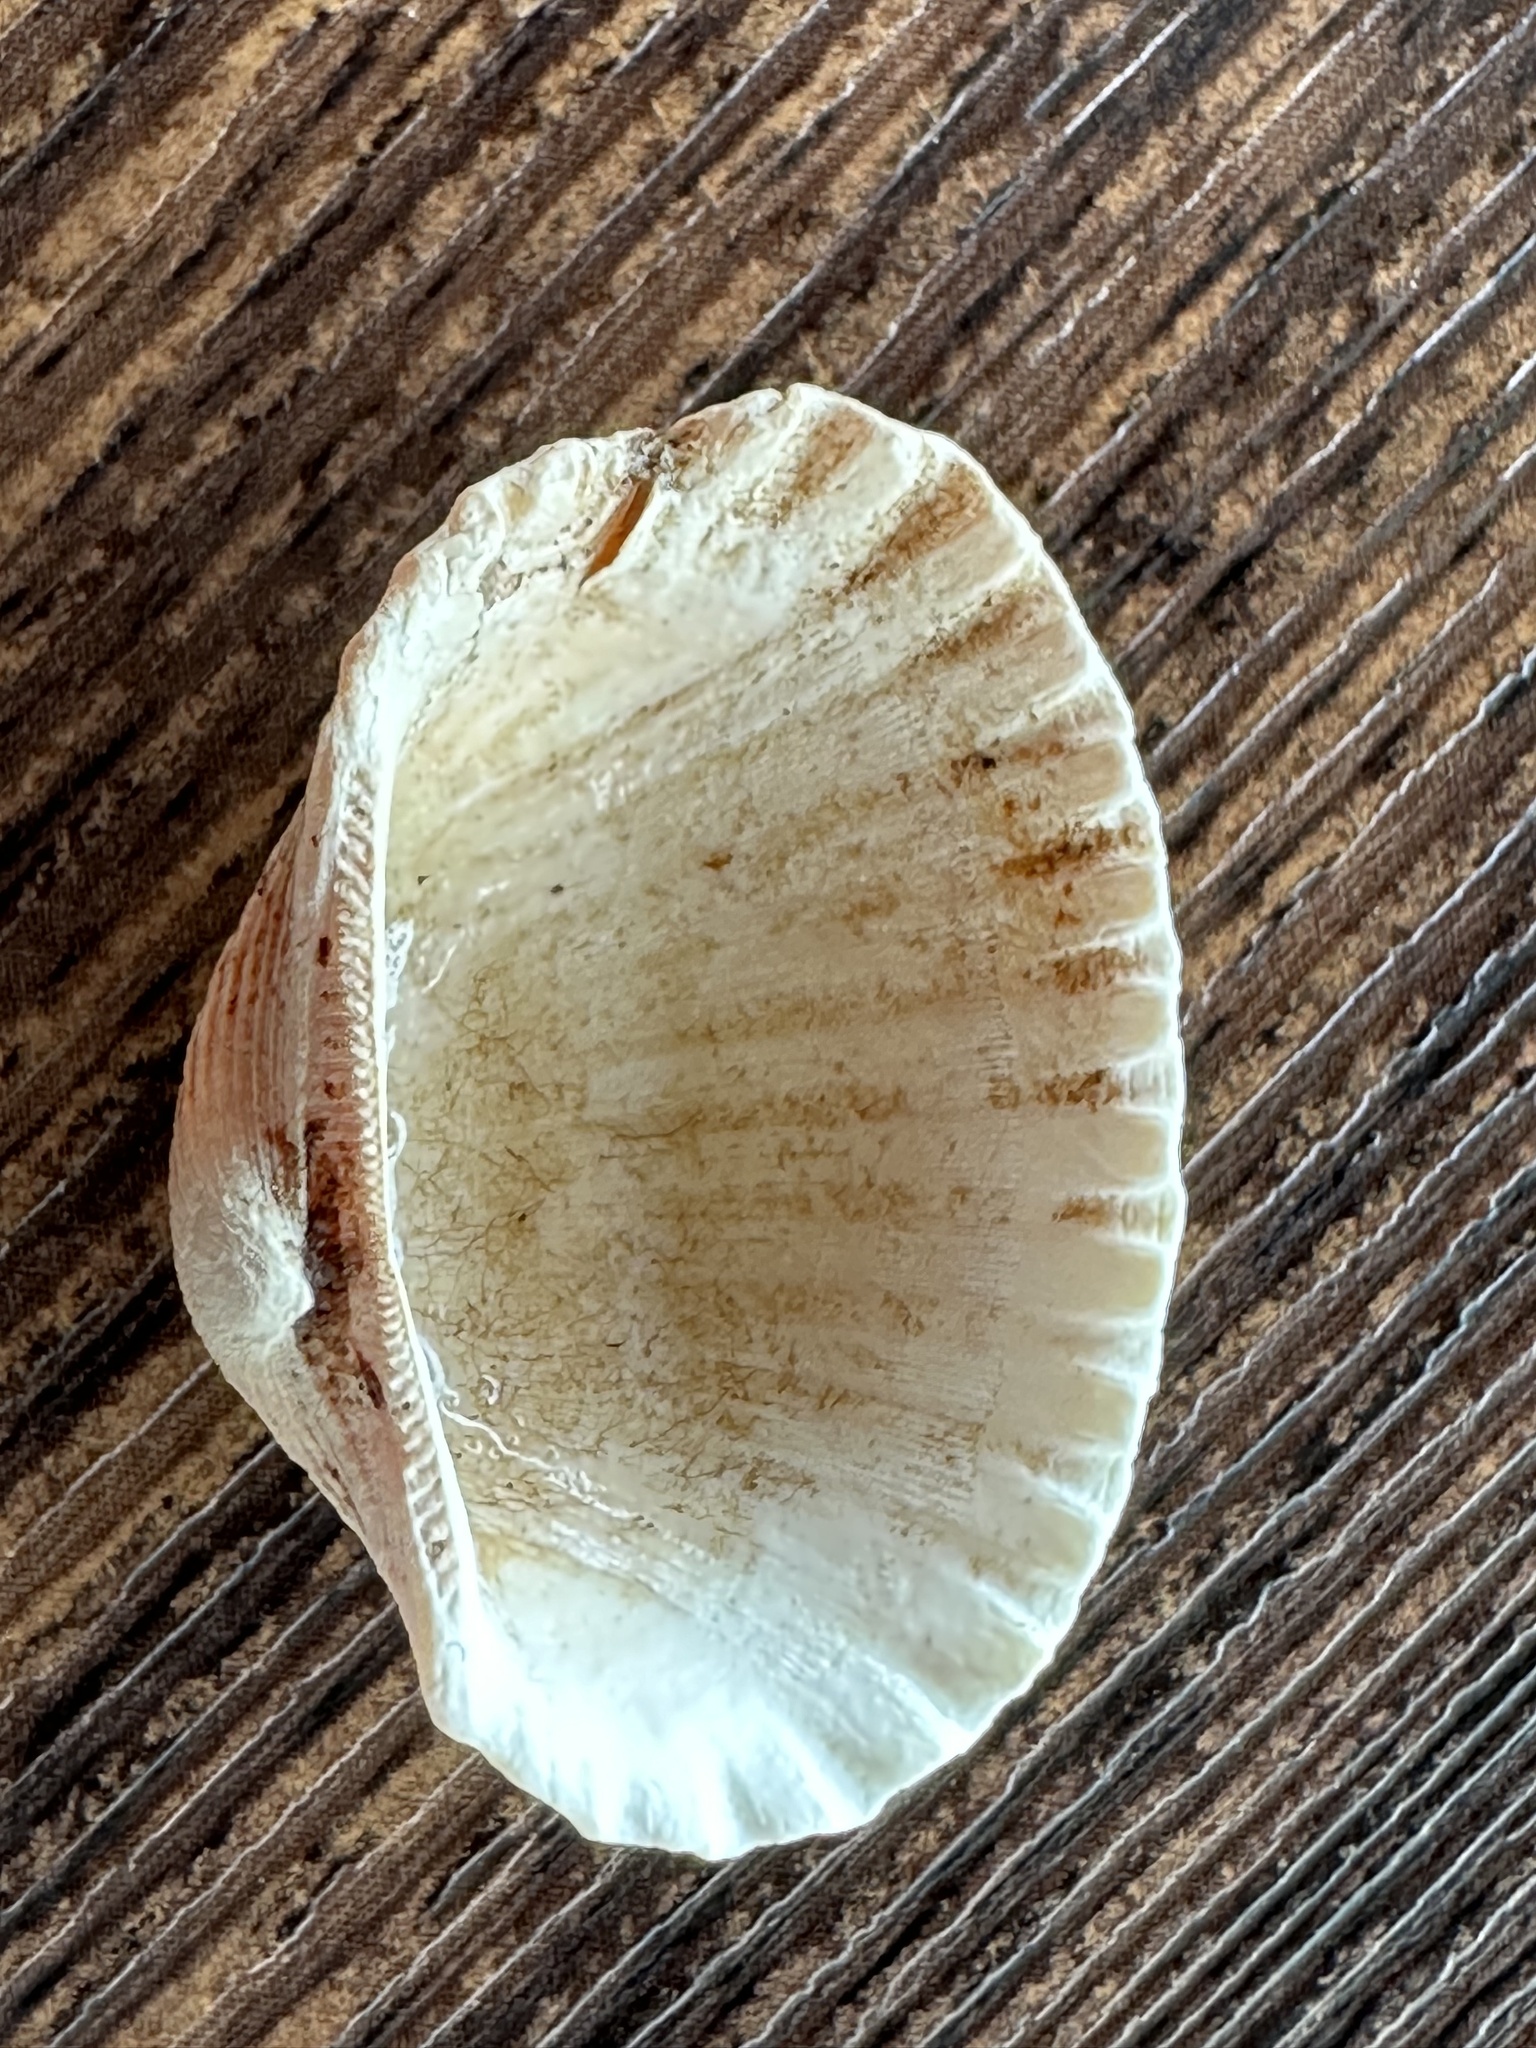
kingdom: Animalia
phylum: Mollusca
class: Bivalvia
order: Arcida
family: Arcidae
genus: Tegillarca
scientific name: Tegillarca granosa
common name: Blood clam
